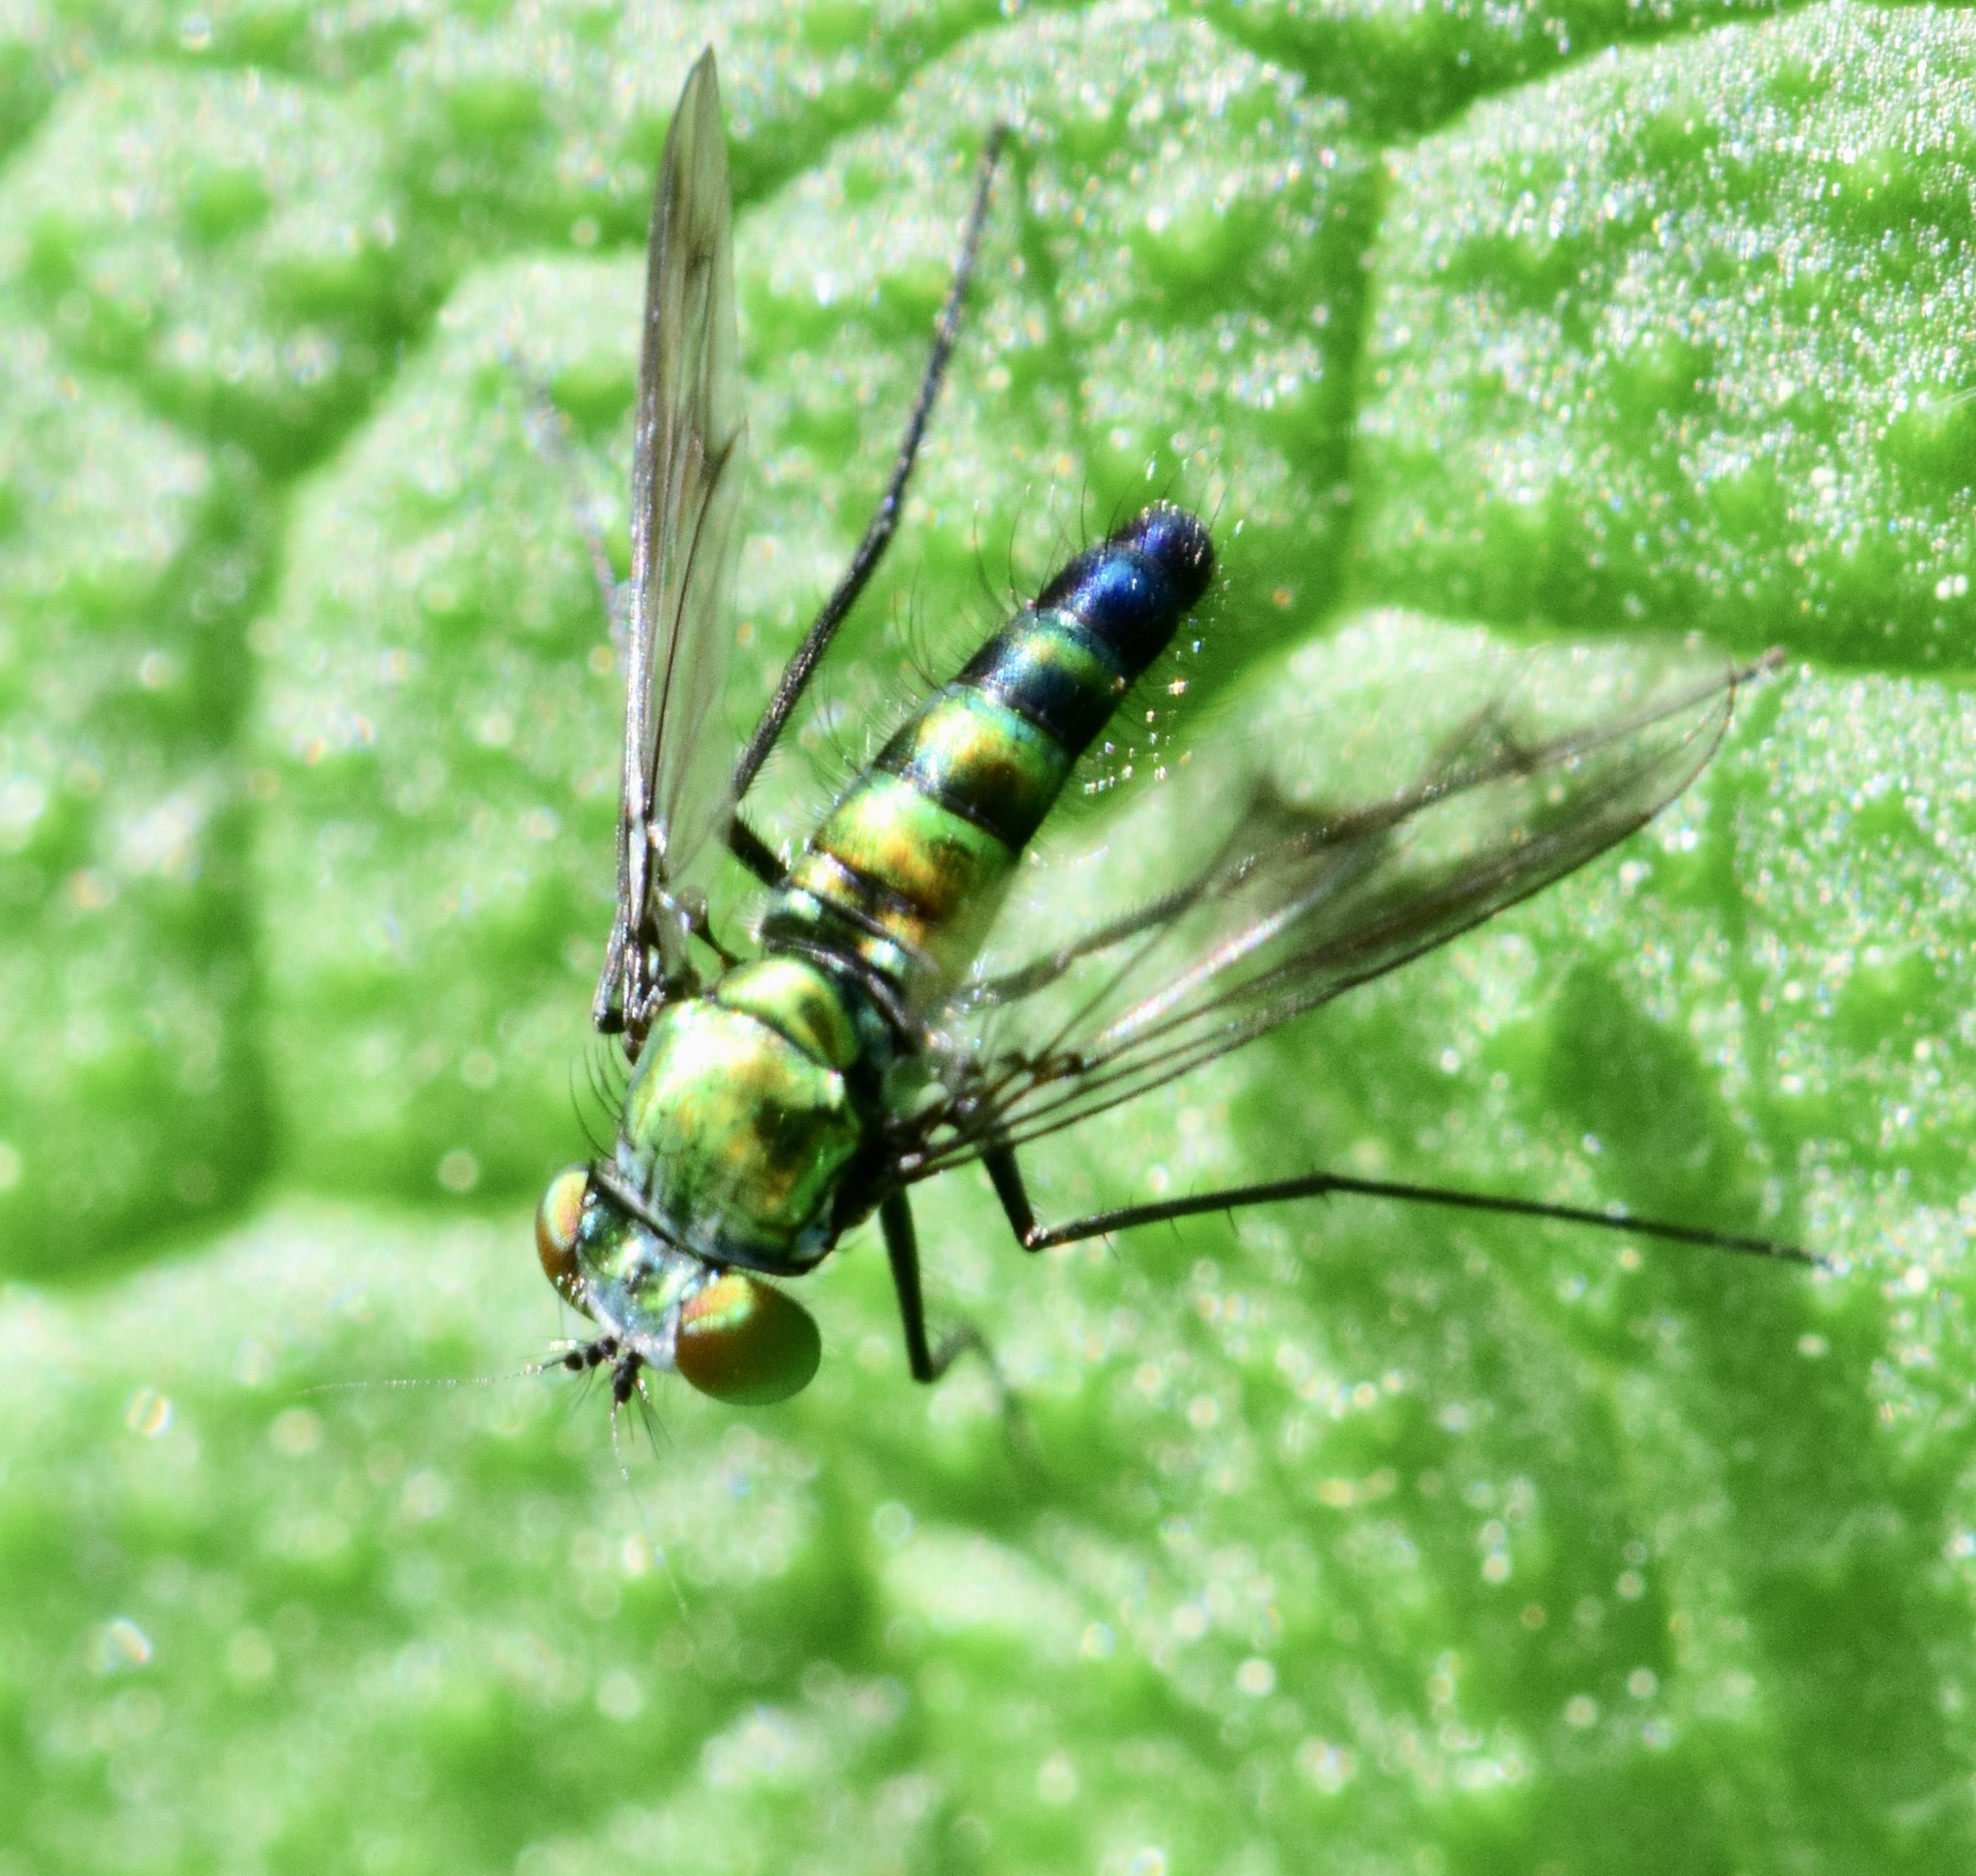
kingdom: Animalia
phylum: Arthropoda
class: Insecta
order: Diptera
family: Dolichopodidae
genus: Condylostylus
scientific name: Condylostylus patibulatus
